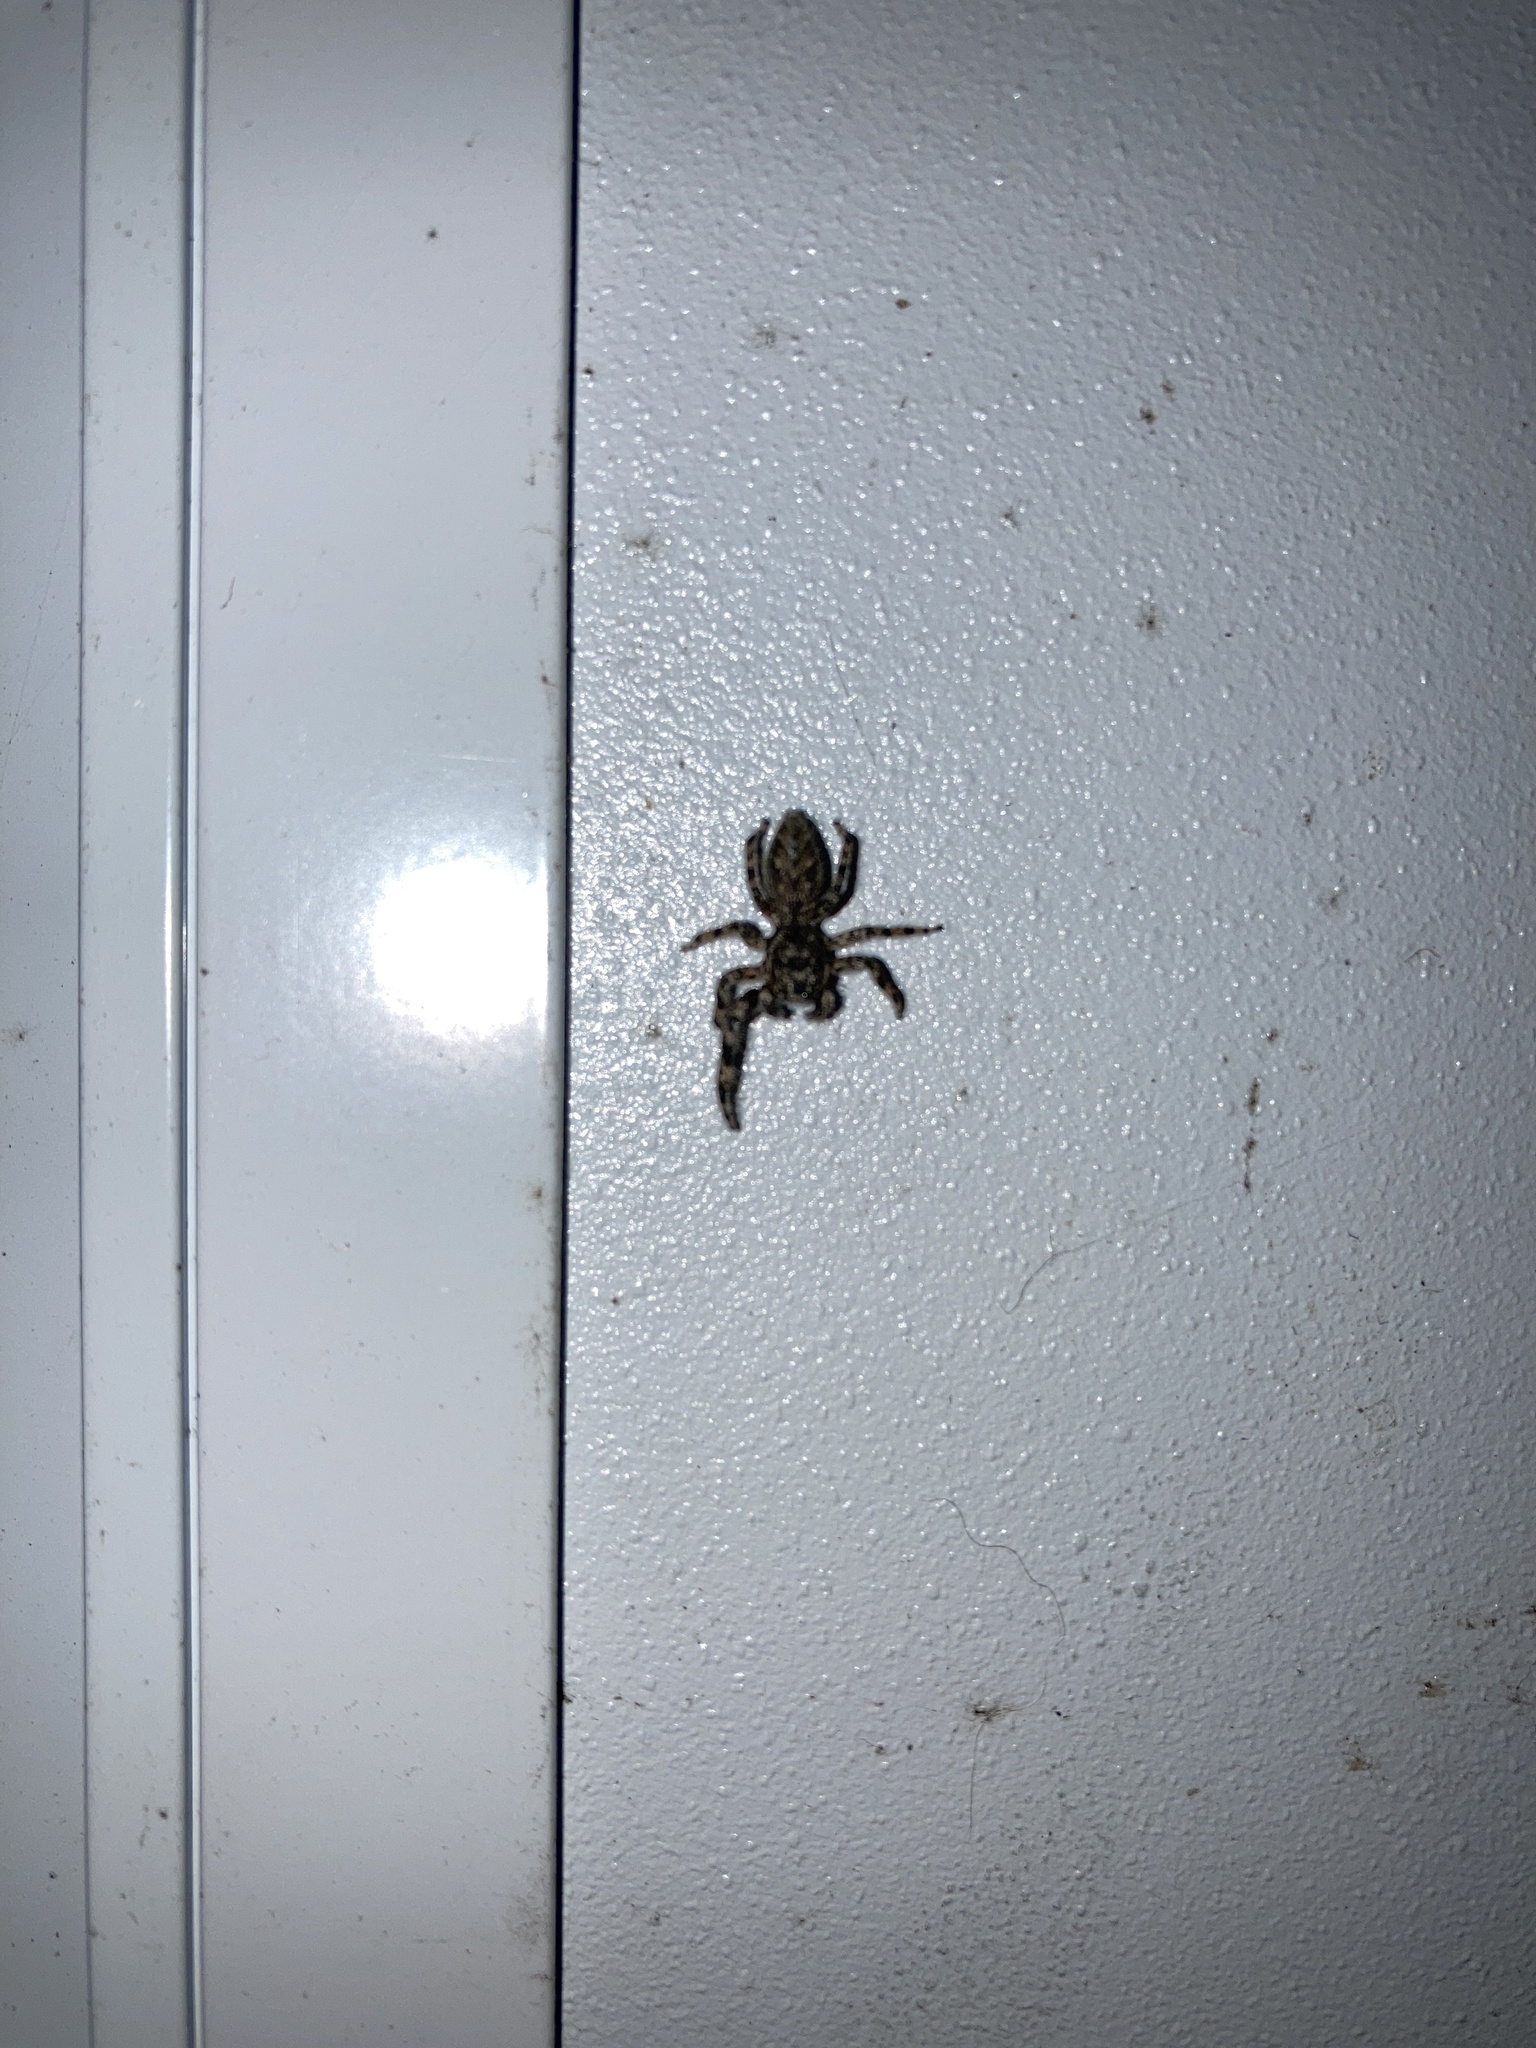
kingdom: Animalia
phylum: Arthropoda
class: Arachnida
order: Araneae
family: Salticidae
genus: Platycryptus
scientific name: Platycryptus undatus
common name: Tan jumping spider
